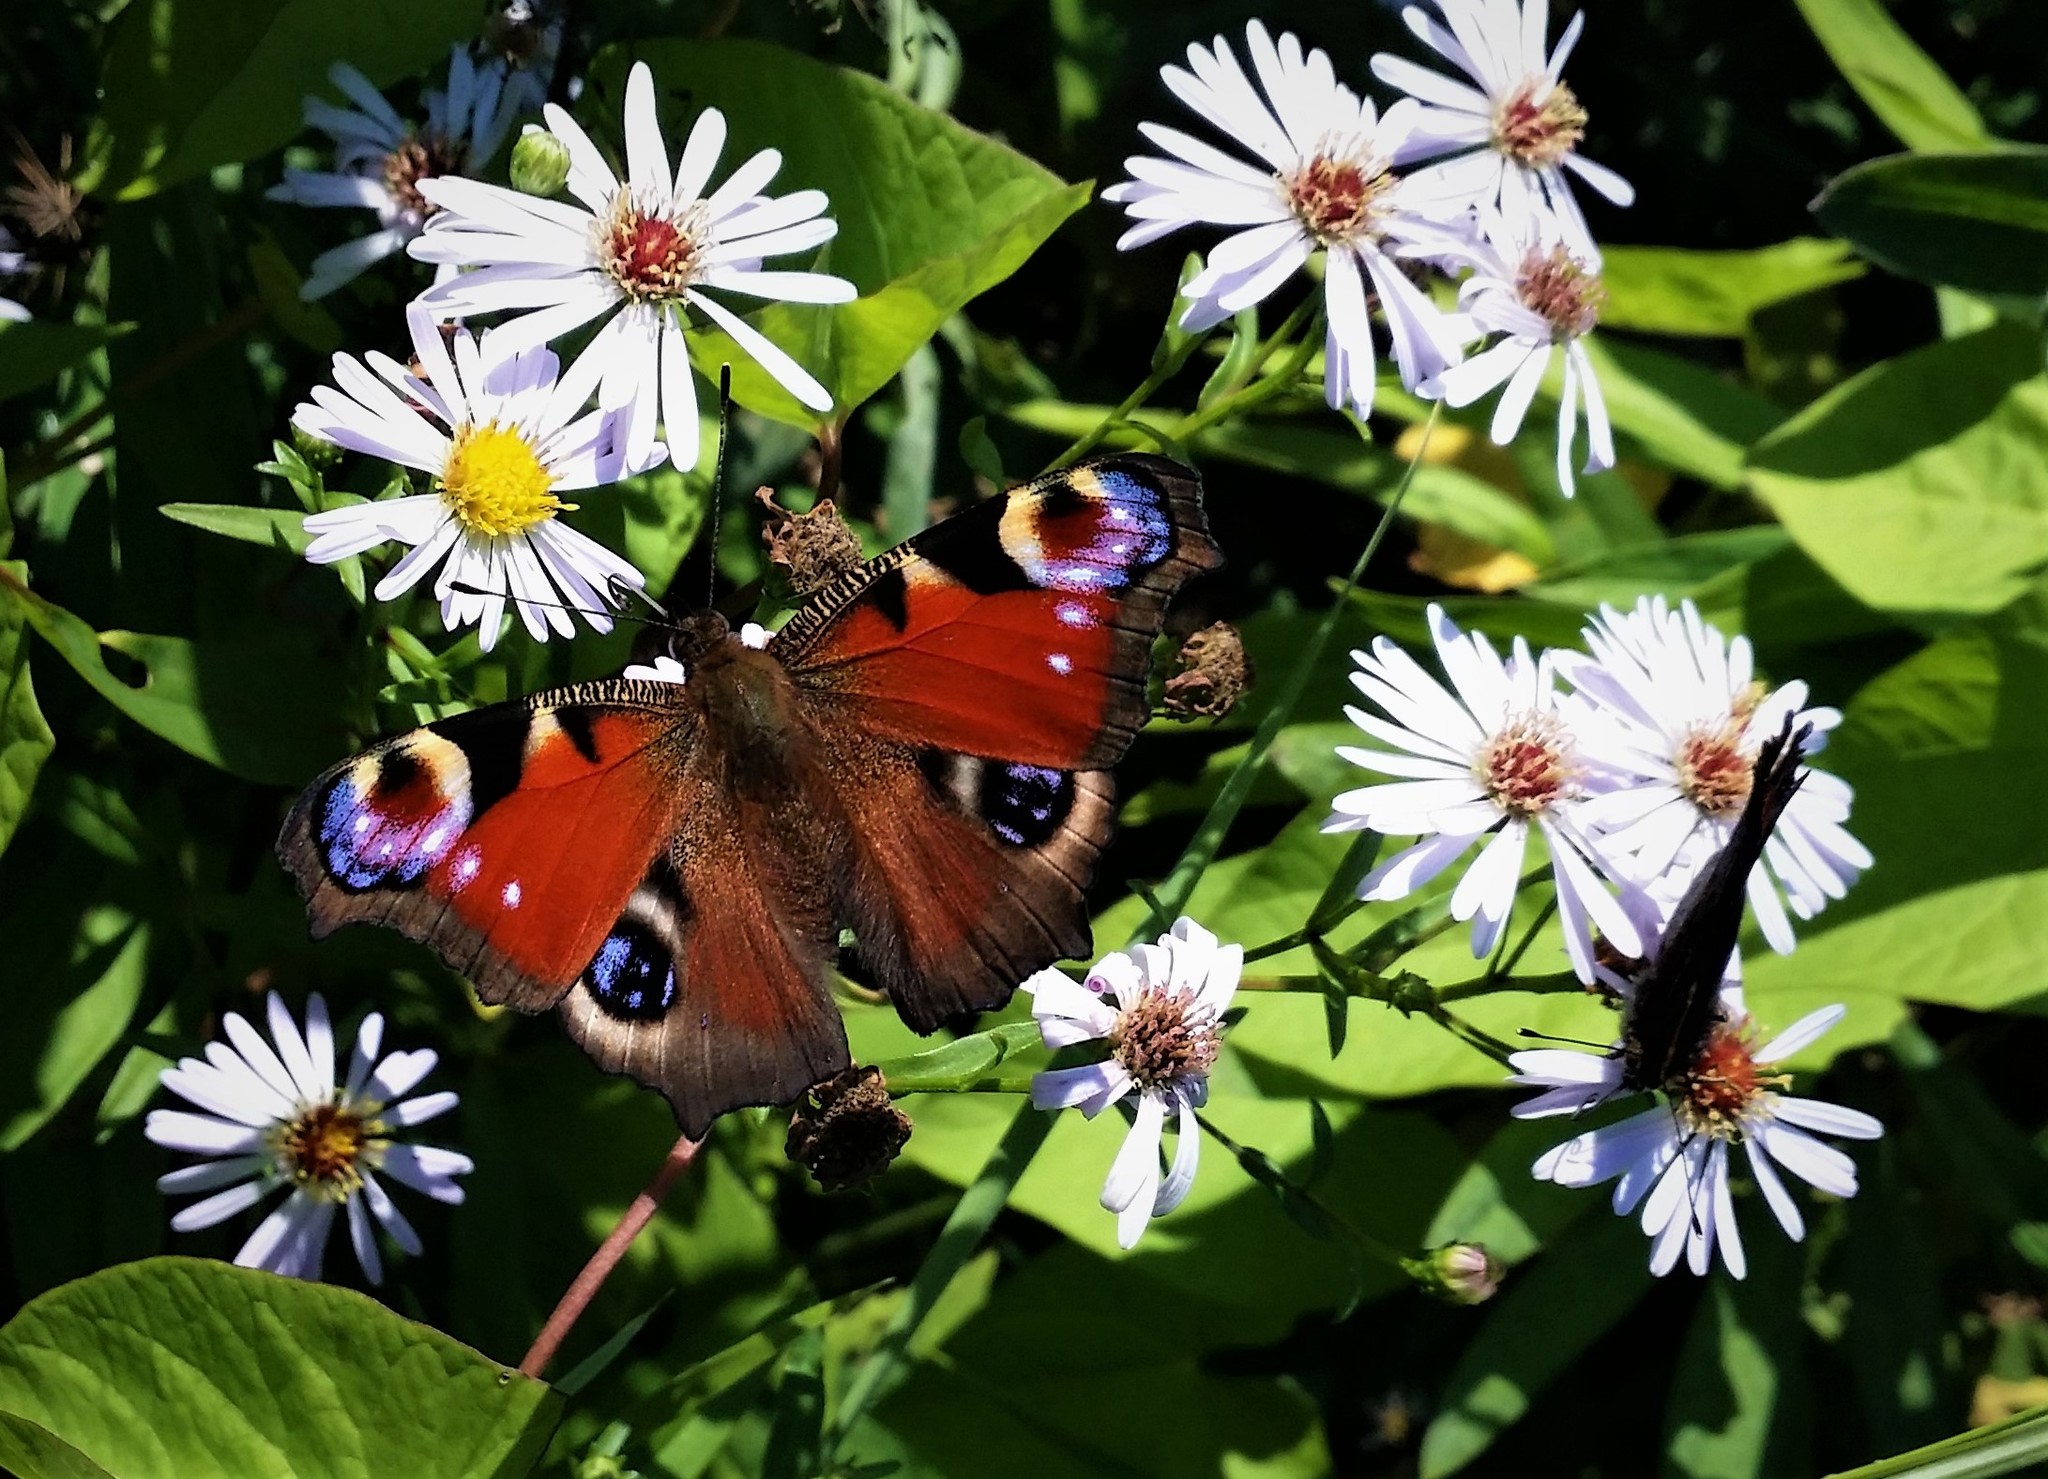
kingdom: Animalia
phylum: Arthropoda
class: Insecta
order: Lepidoptera
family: Nymphalidae
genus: Aglais
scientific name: Aglais io
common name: Peacock
